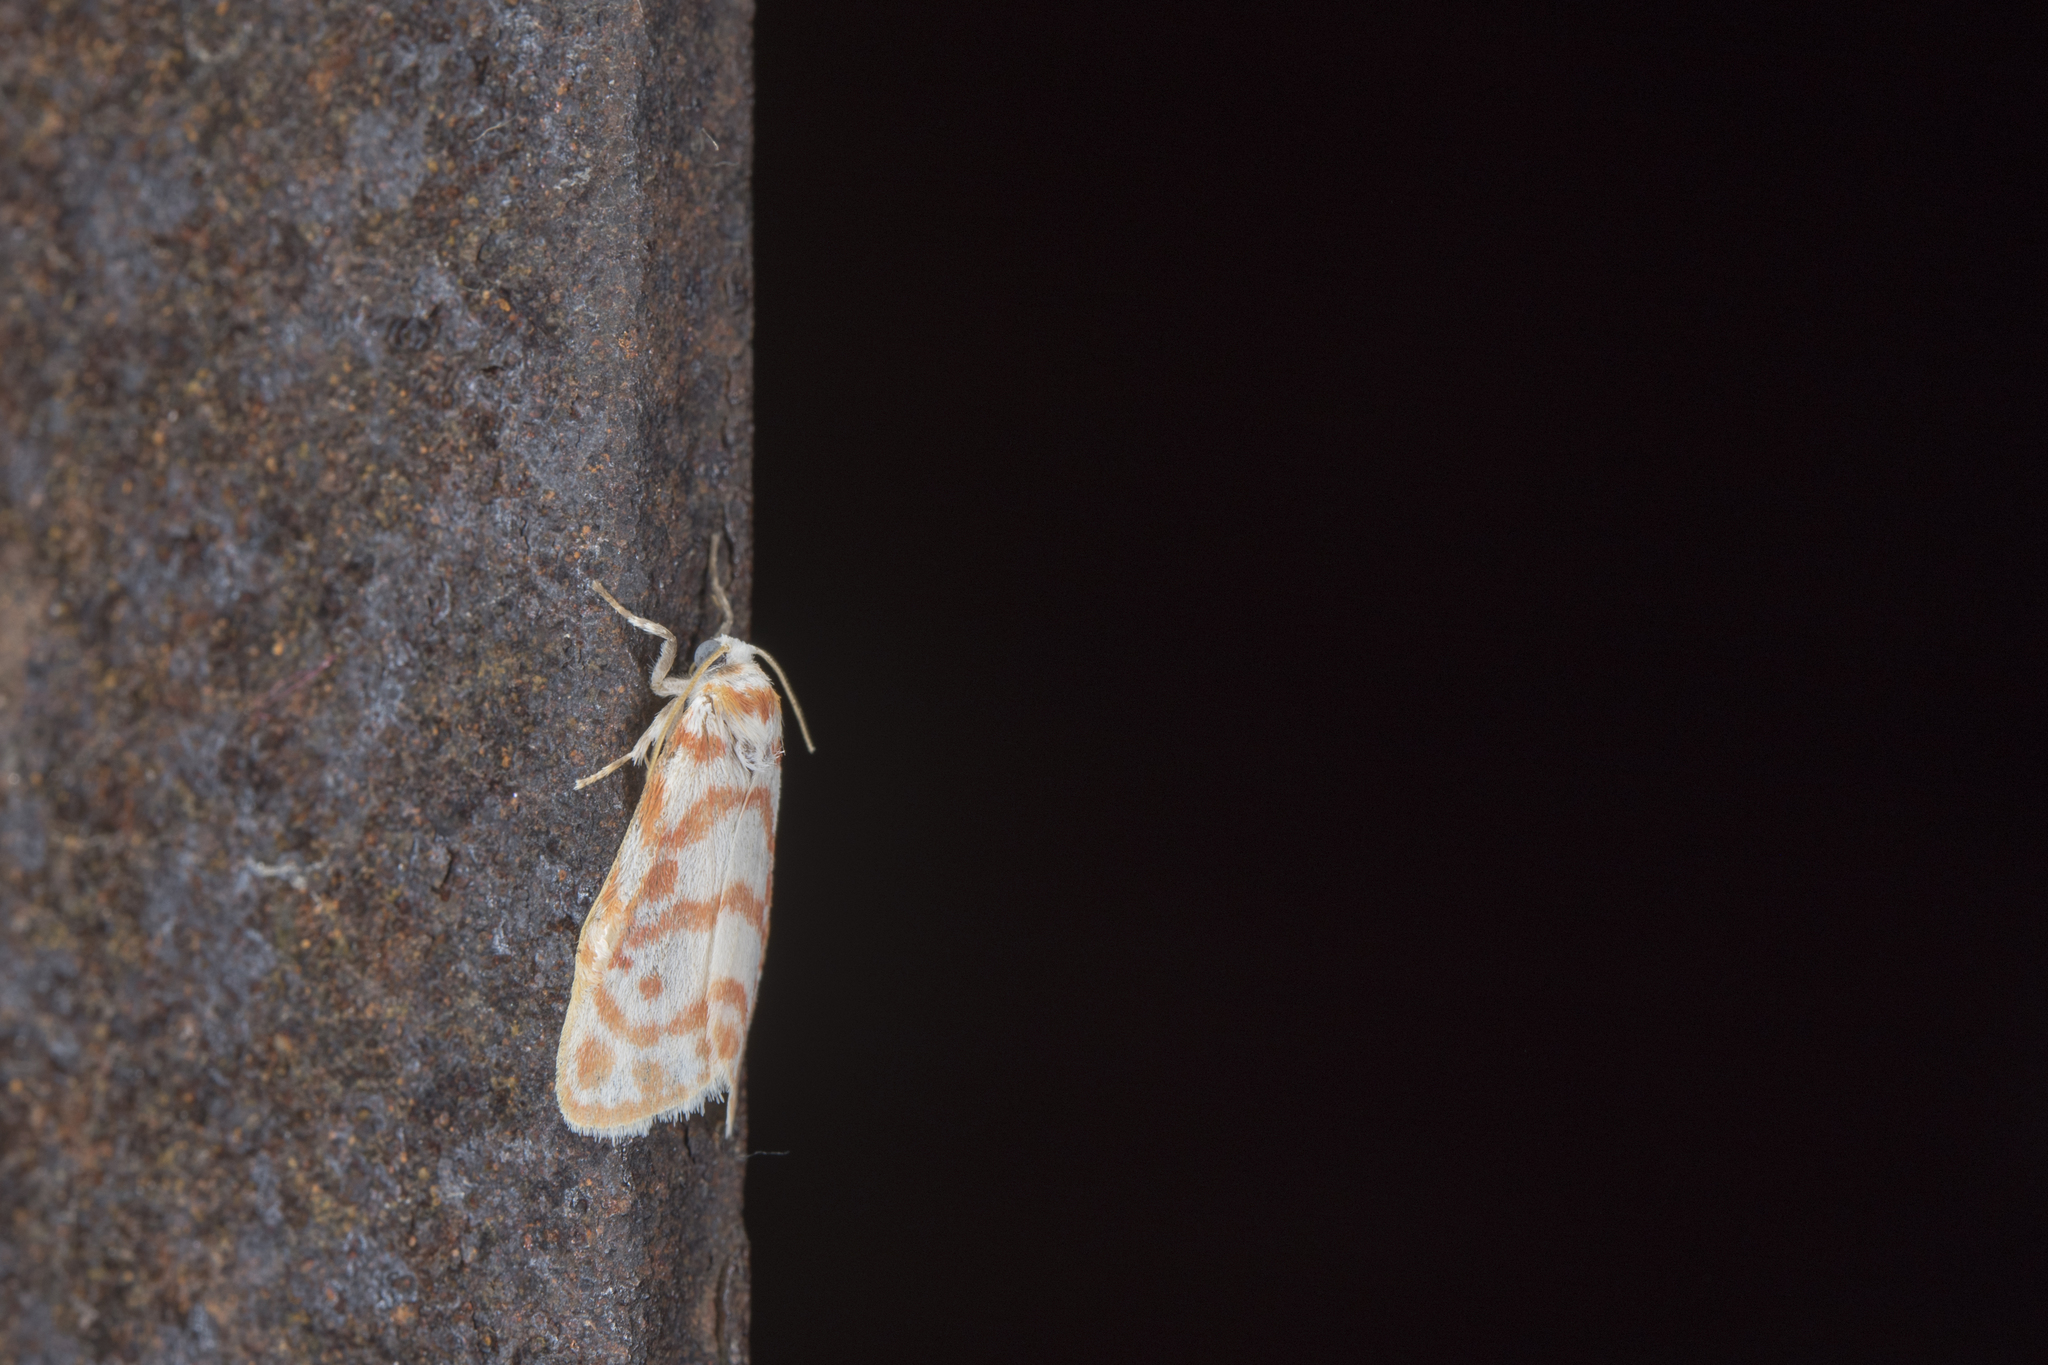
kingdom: Animalia
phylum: Arthropoda
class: Insecta
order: Lepidoptera
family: Erebidae
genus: Nephelomilta
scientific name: Nephelomilta karenkonis
